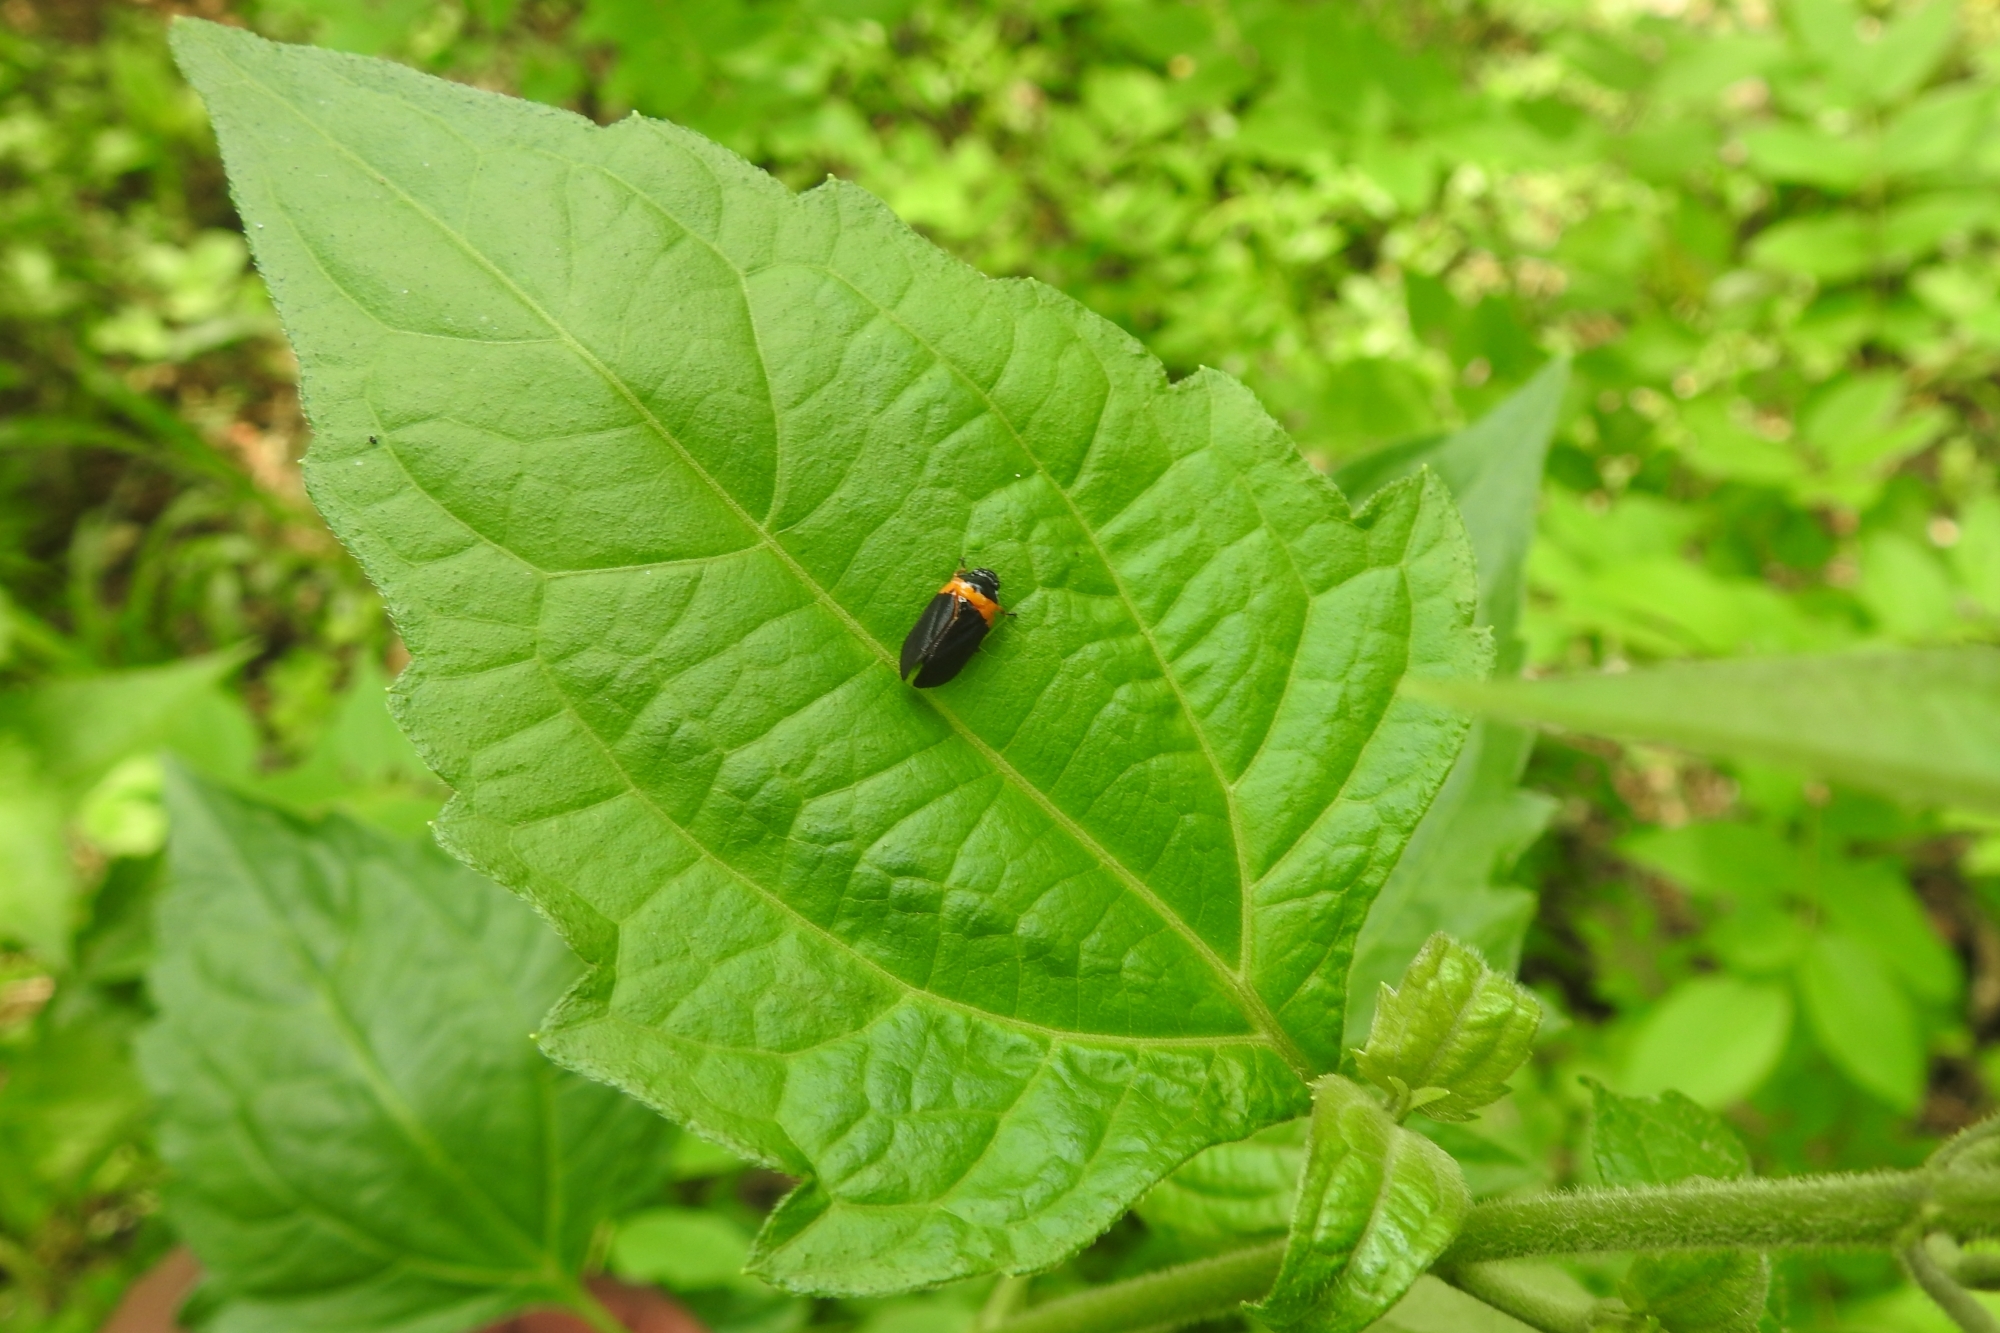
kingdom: Animalia
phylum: Arthropoda
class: Insecta
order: Hemiptera
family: Cercopidae
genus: Phymatostetha
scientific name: Phymatostetha deschampsi
